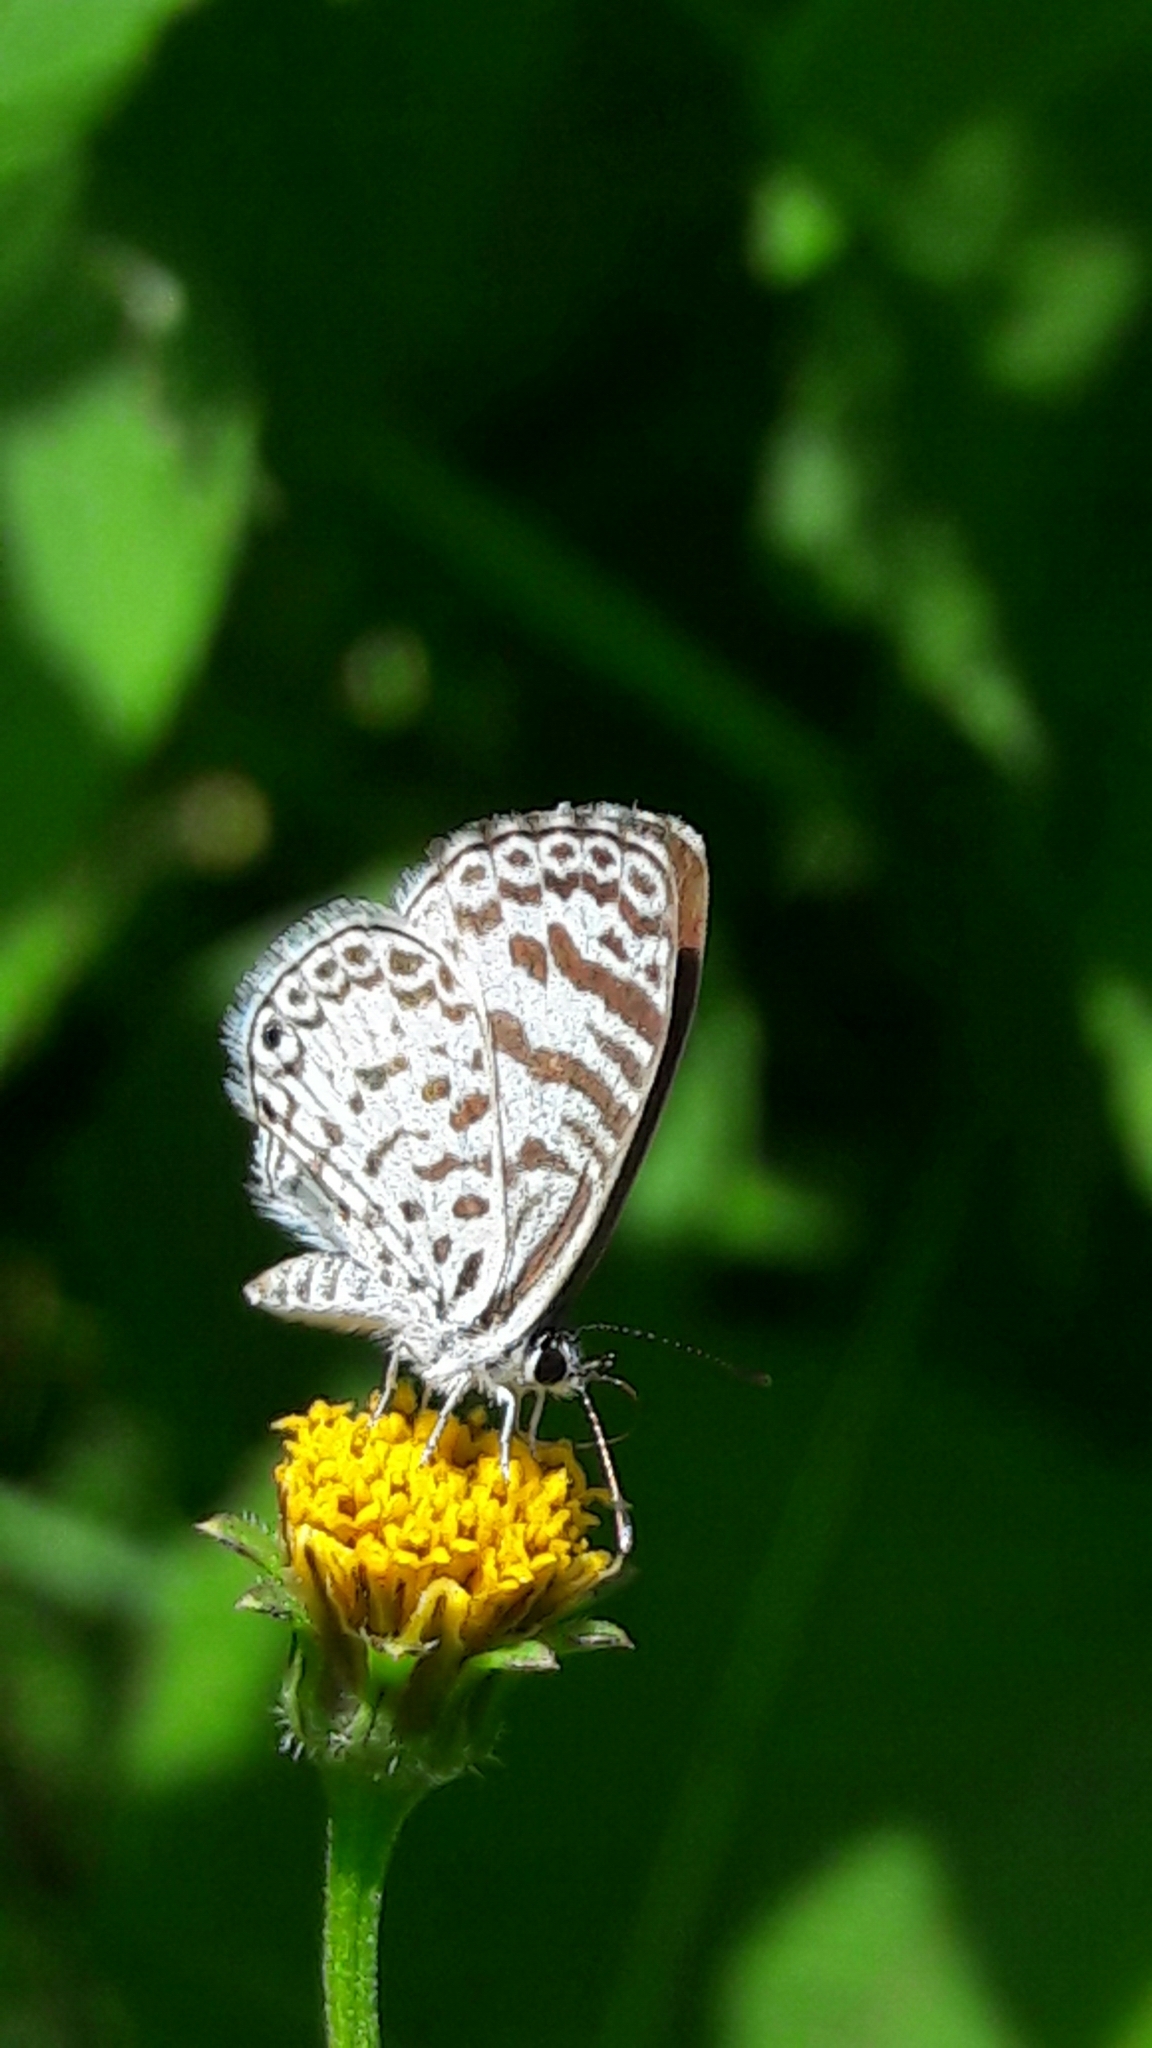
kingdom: Animalia
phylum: Arthropoda
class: Insecta
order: Lepidoptera
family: Lycaenidae
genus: Leptotes
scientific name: Leptotes cassius
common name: Cassius blue
